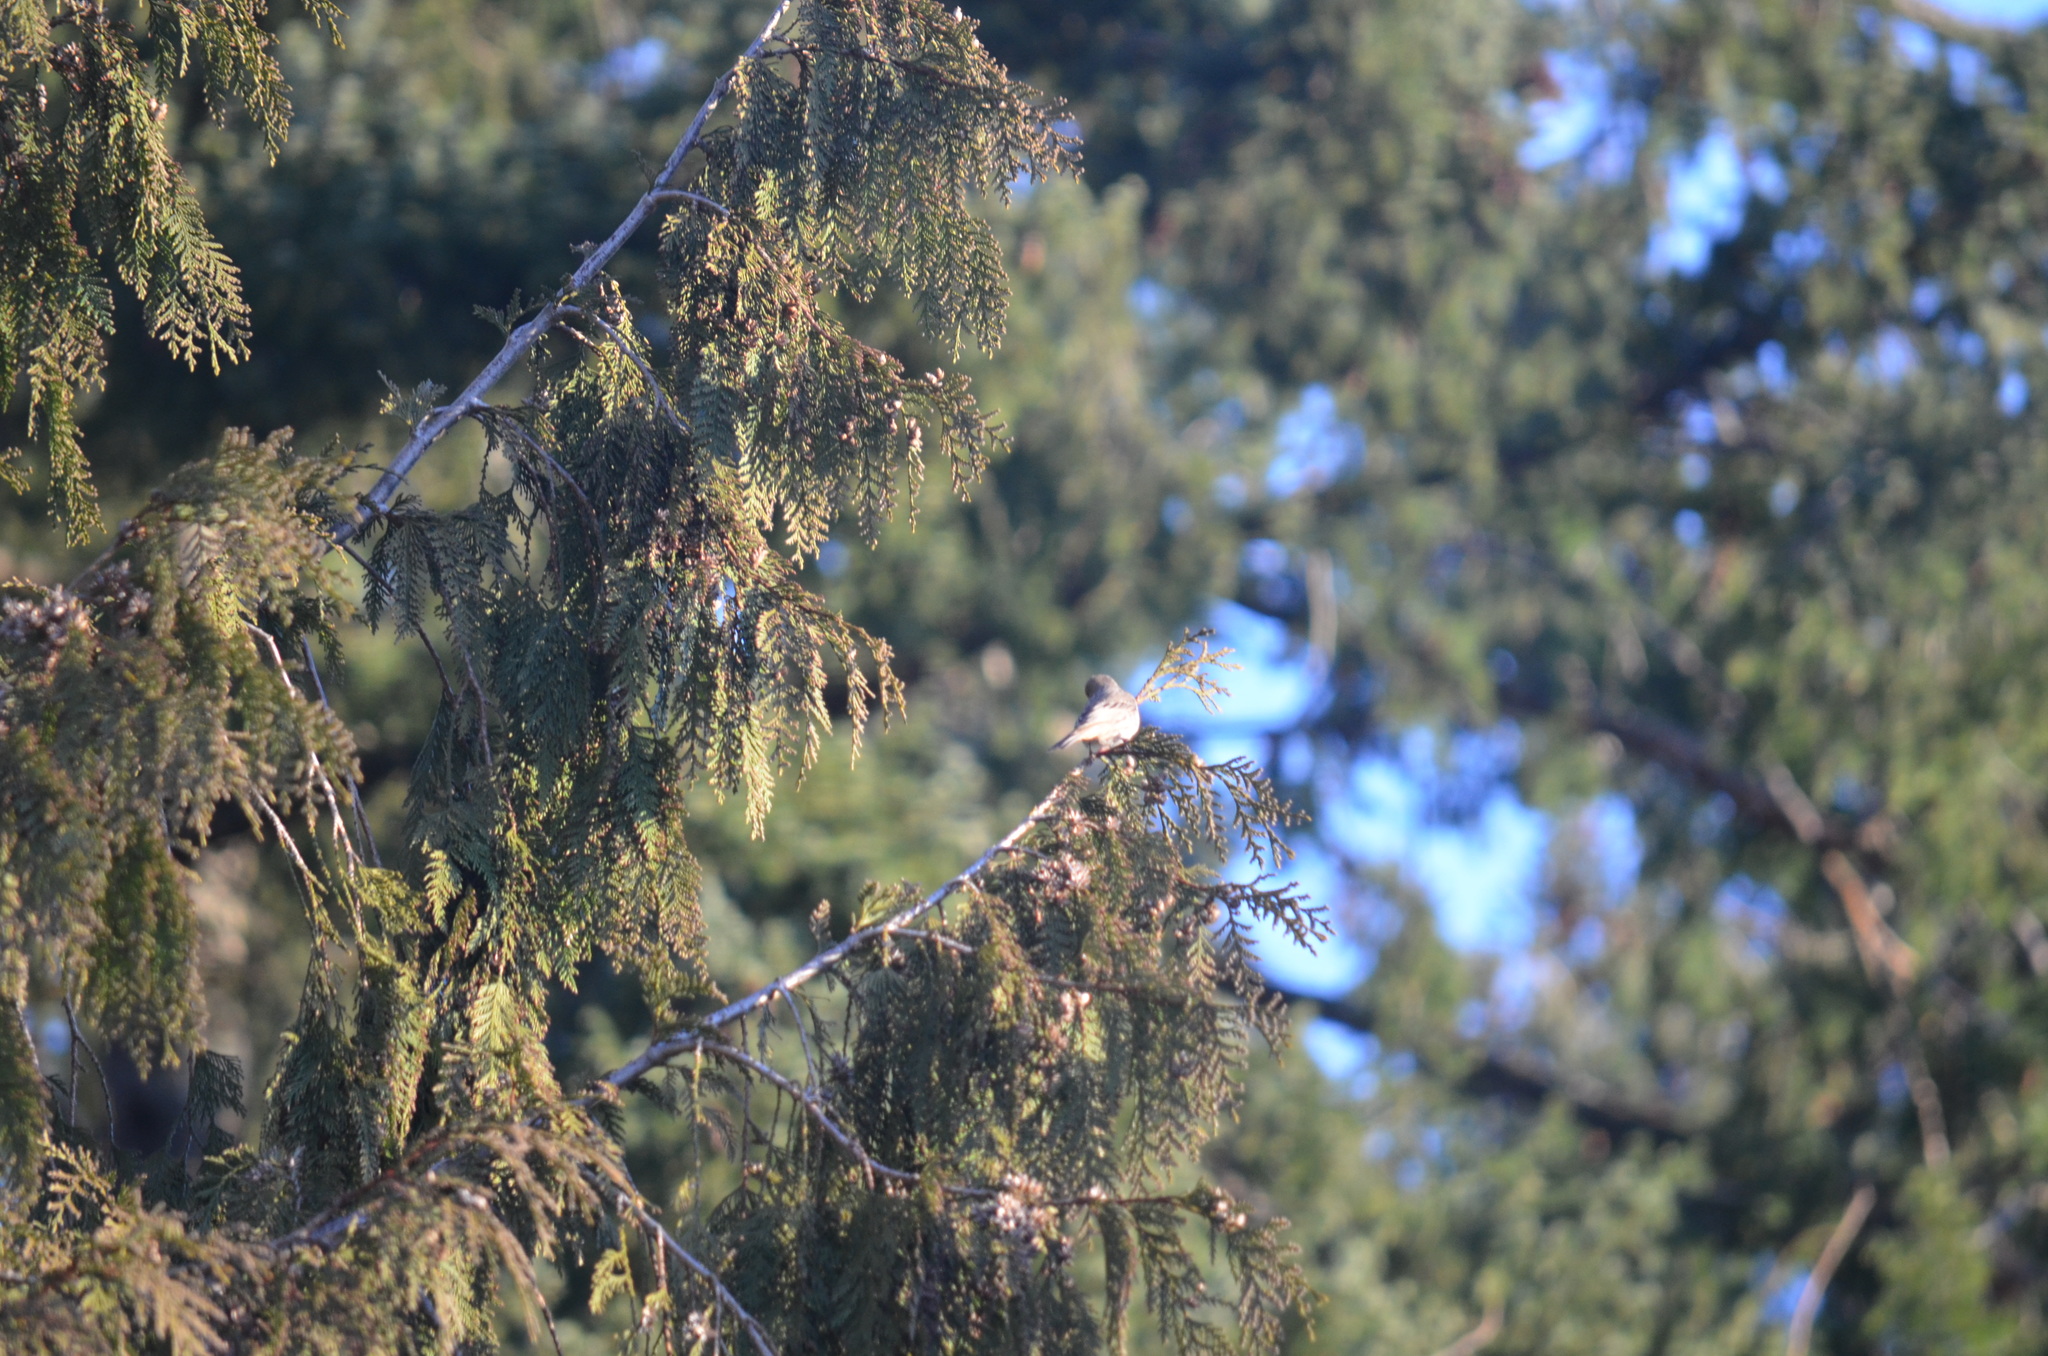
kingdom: Animalia
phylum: Chordata
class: Aves
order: Passeriformes
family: Fringillidae
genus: Haemorhous
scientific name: Haemorhous mexicanus
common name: House finch
